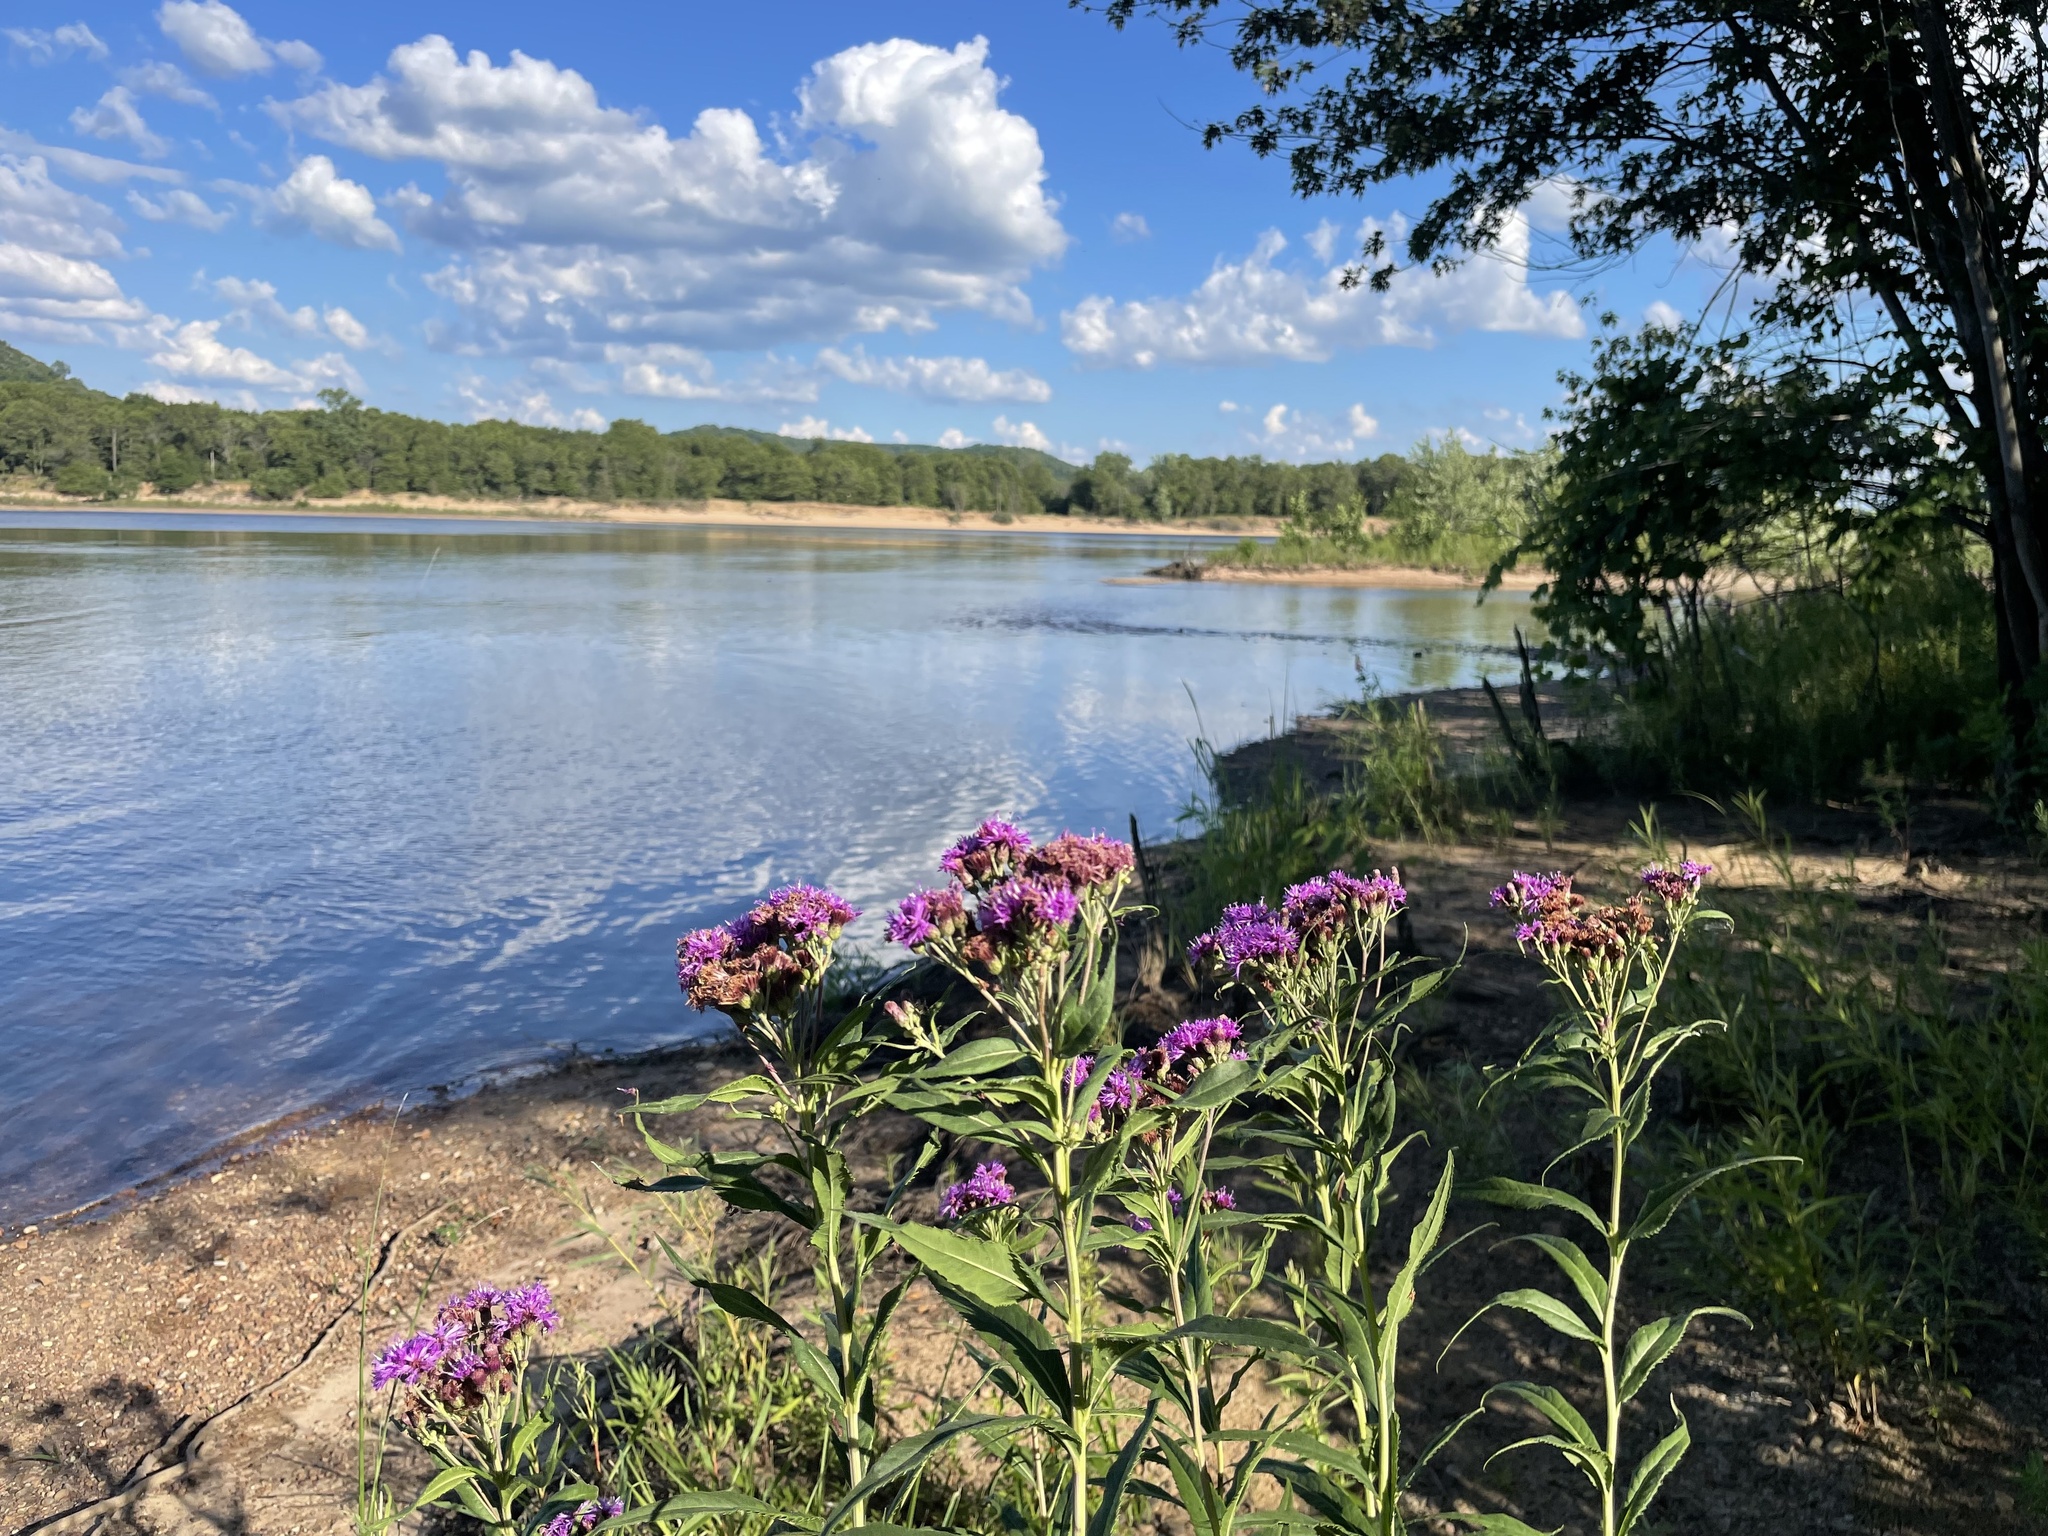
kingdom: Plantae
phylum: Tracheophyta
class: Magnoliopsida
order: Asterales
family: Asteraceae
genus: Vernonia
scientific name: Vernonia fasciculata
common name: Fascicled ironweed
